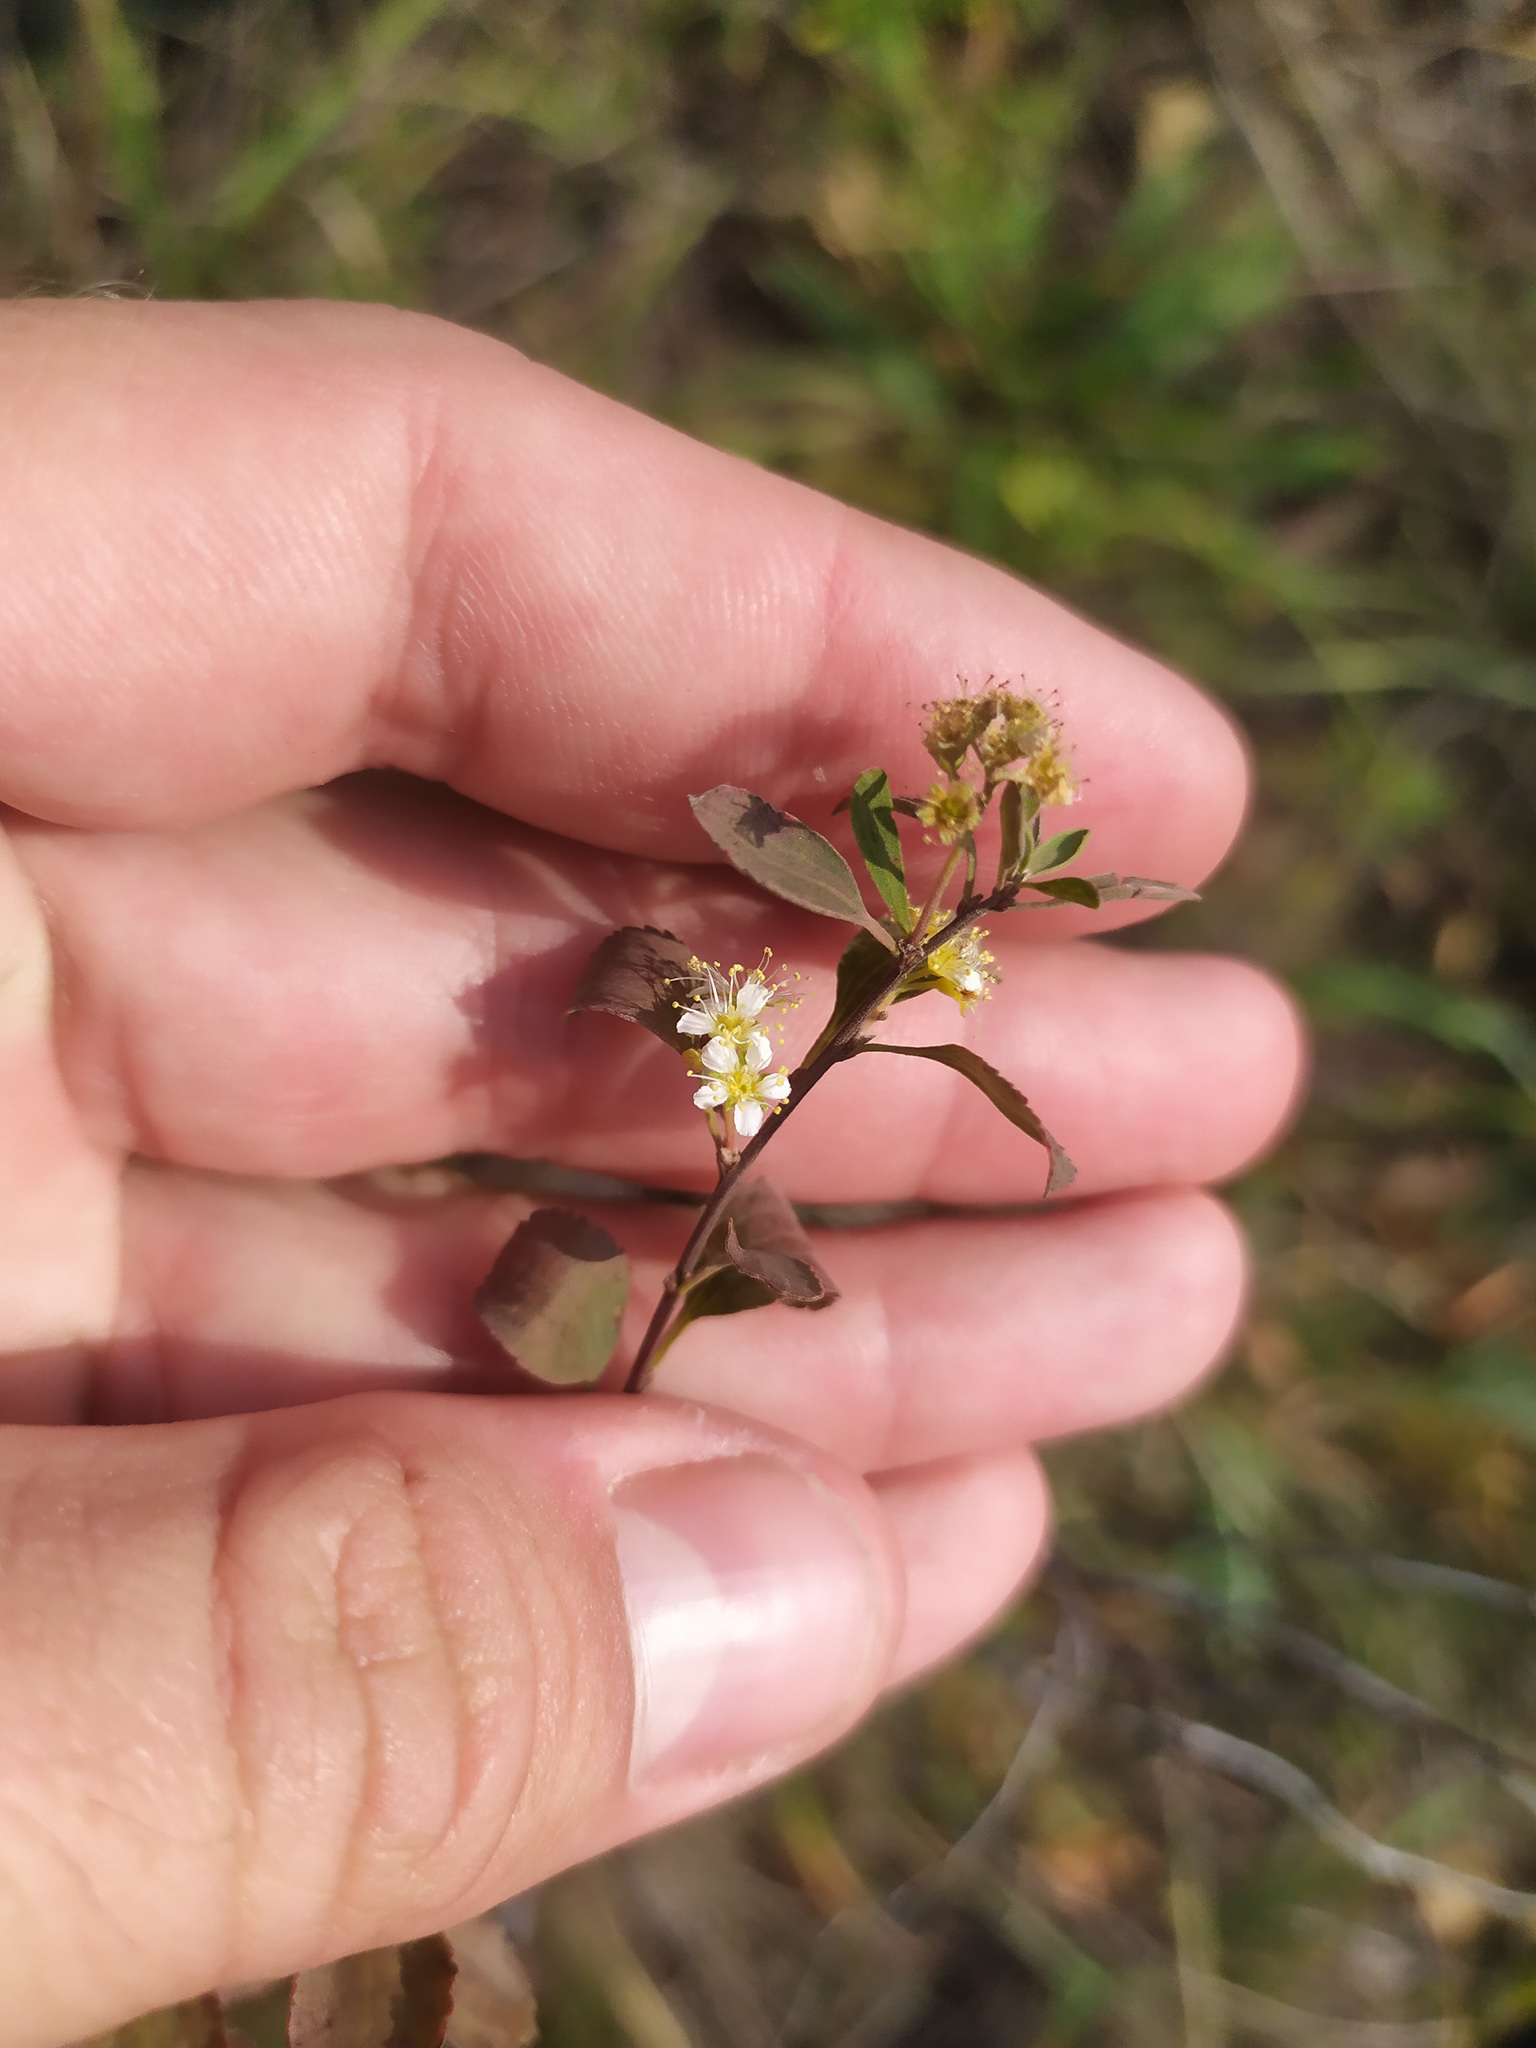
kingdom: Plantae
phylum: Tracheophyta
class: Magnoliopsida
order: Rosales
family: Rosaceae
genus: Spiraea
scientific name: Spiraea crenata
